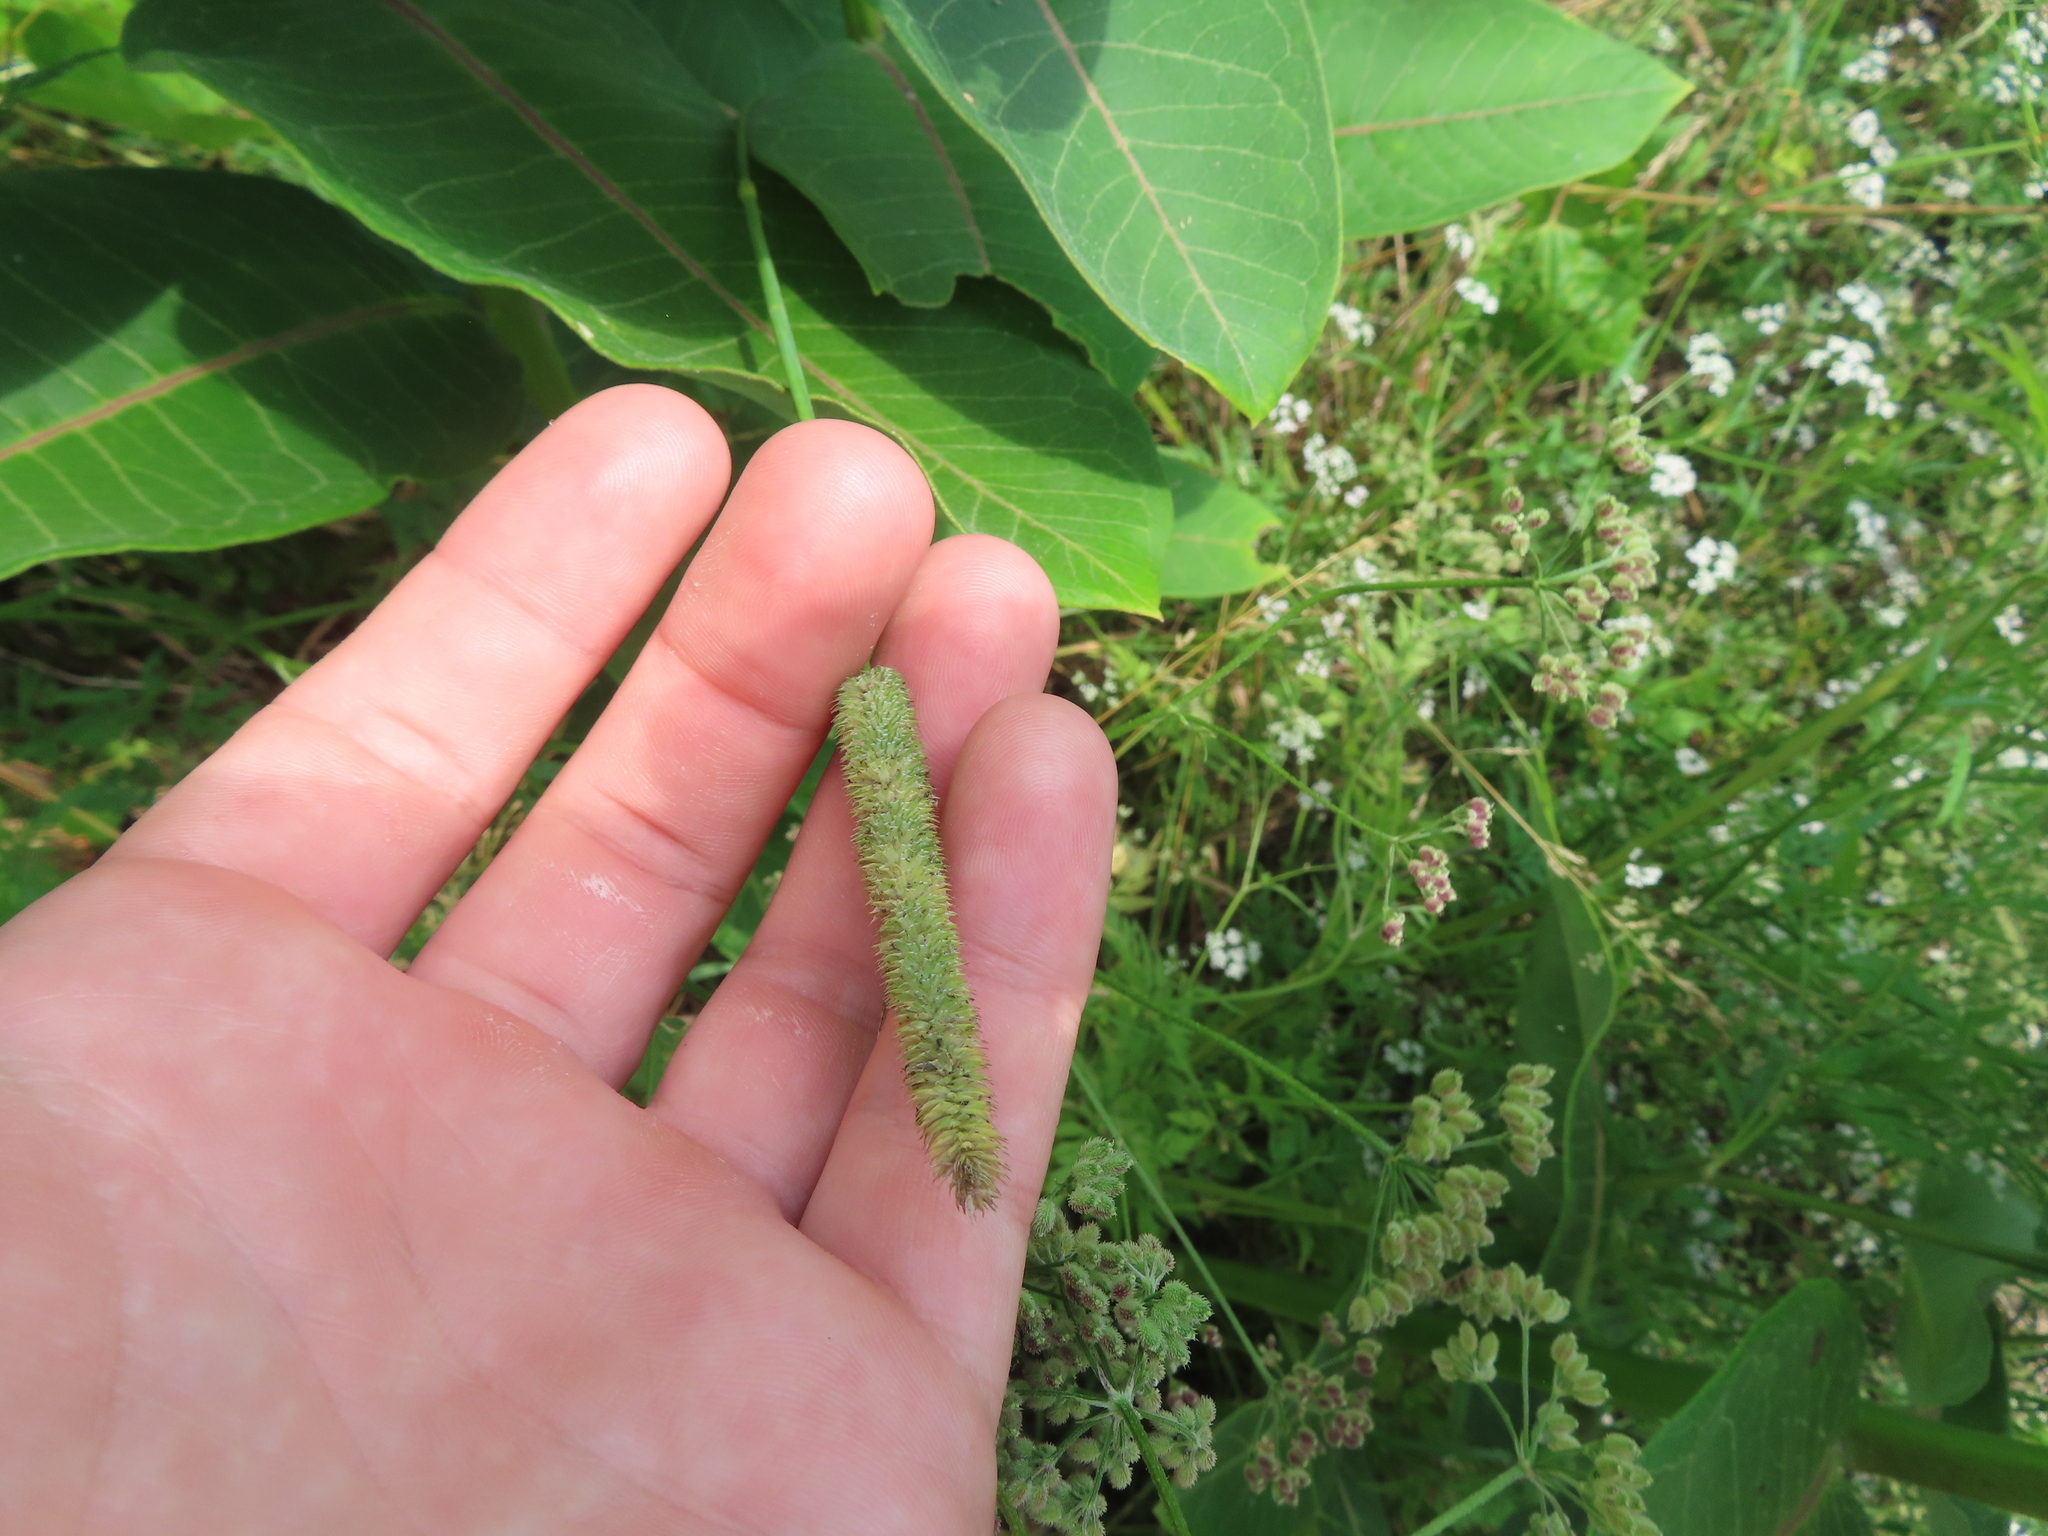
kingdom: Plantae
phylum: Tracheophyta
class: Liliopsida
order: Poales
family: Poaceae
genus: Phleum
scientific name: Phleum pratense
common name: Timothy grass
